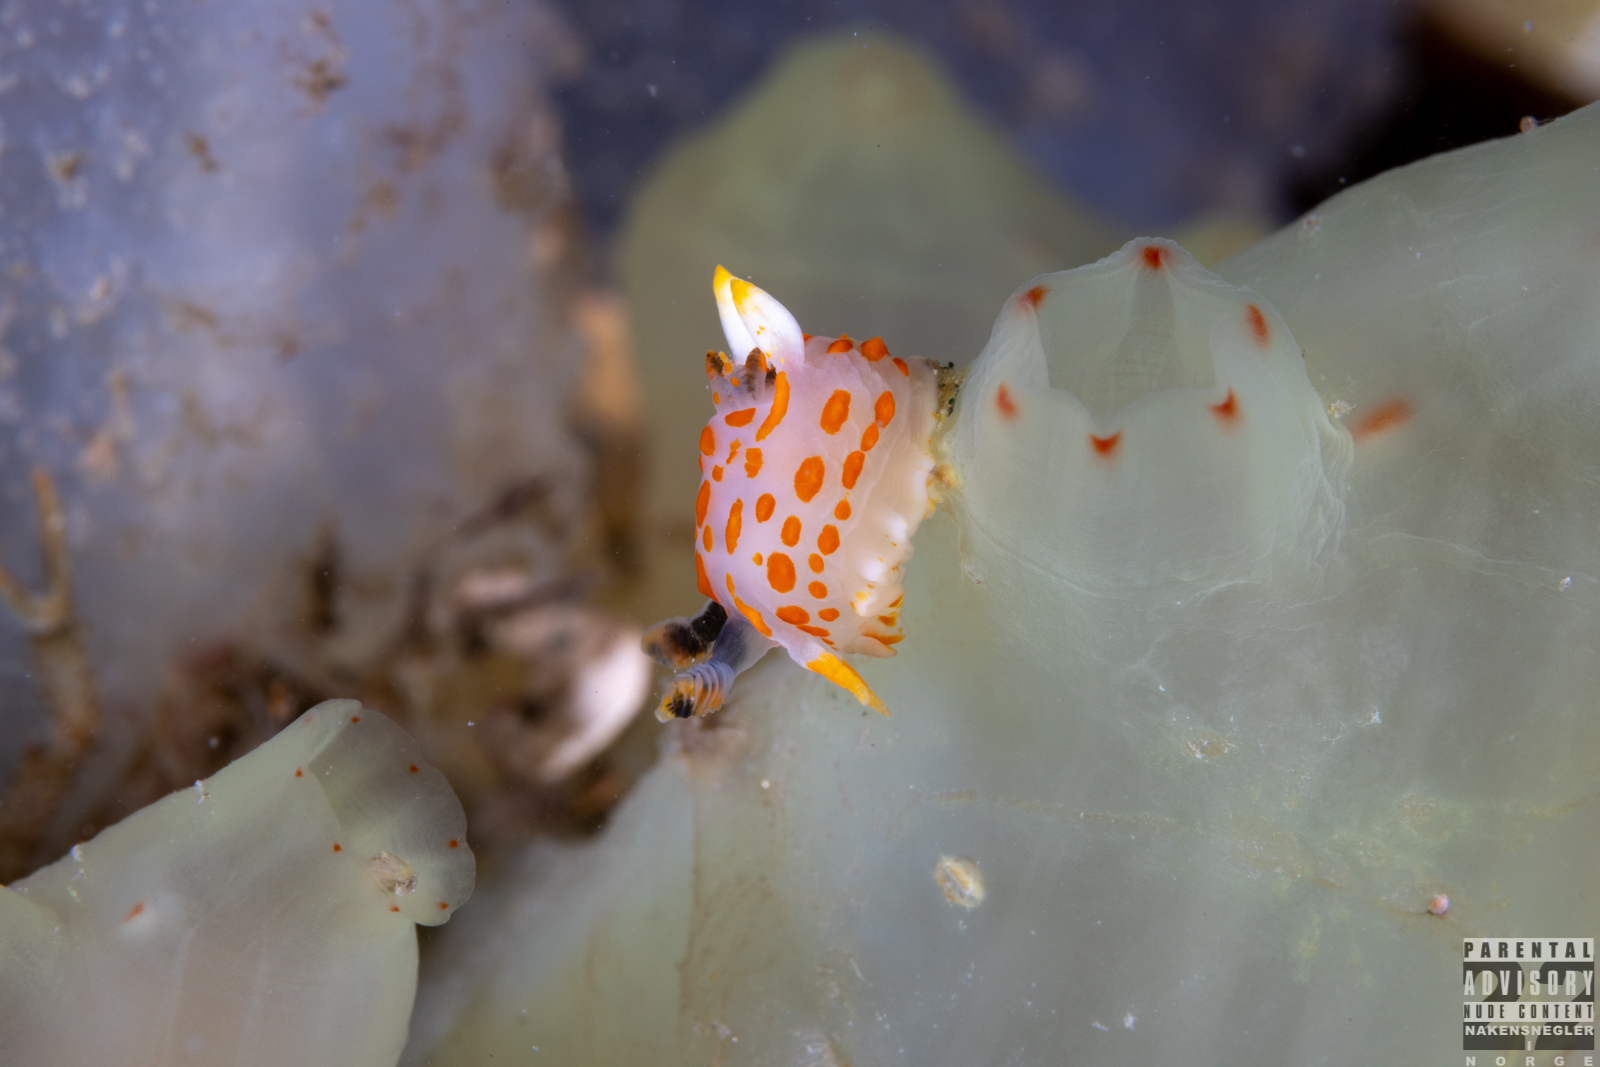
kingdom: Animalia
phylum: Mollusca
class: Gastropoda
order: Nudibranchia
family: Polyceridae
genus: Polycera
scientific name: Polycera quadrilineata
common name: Four-striped polycera
